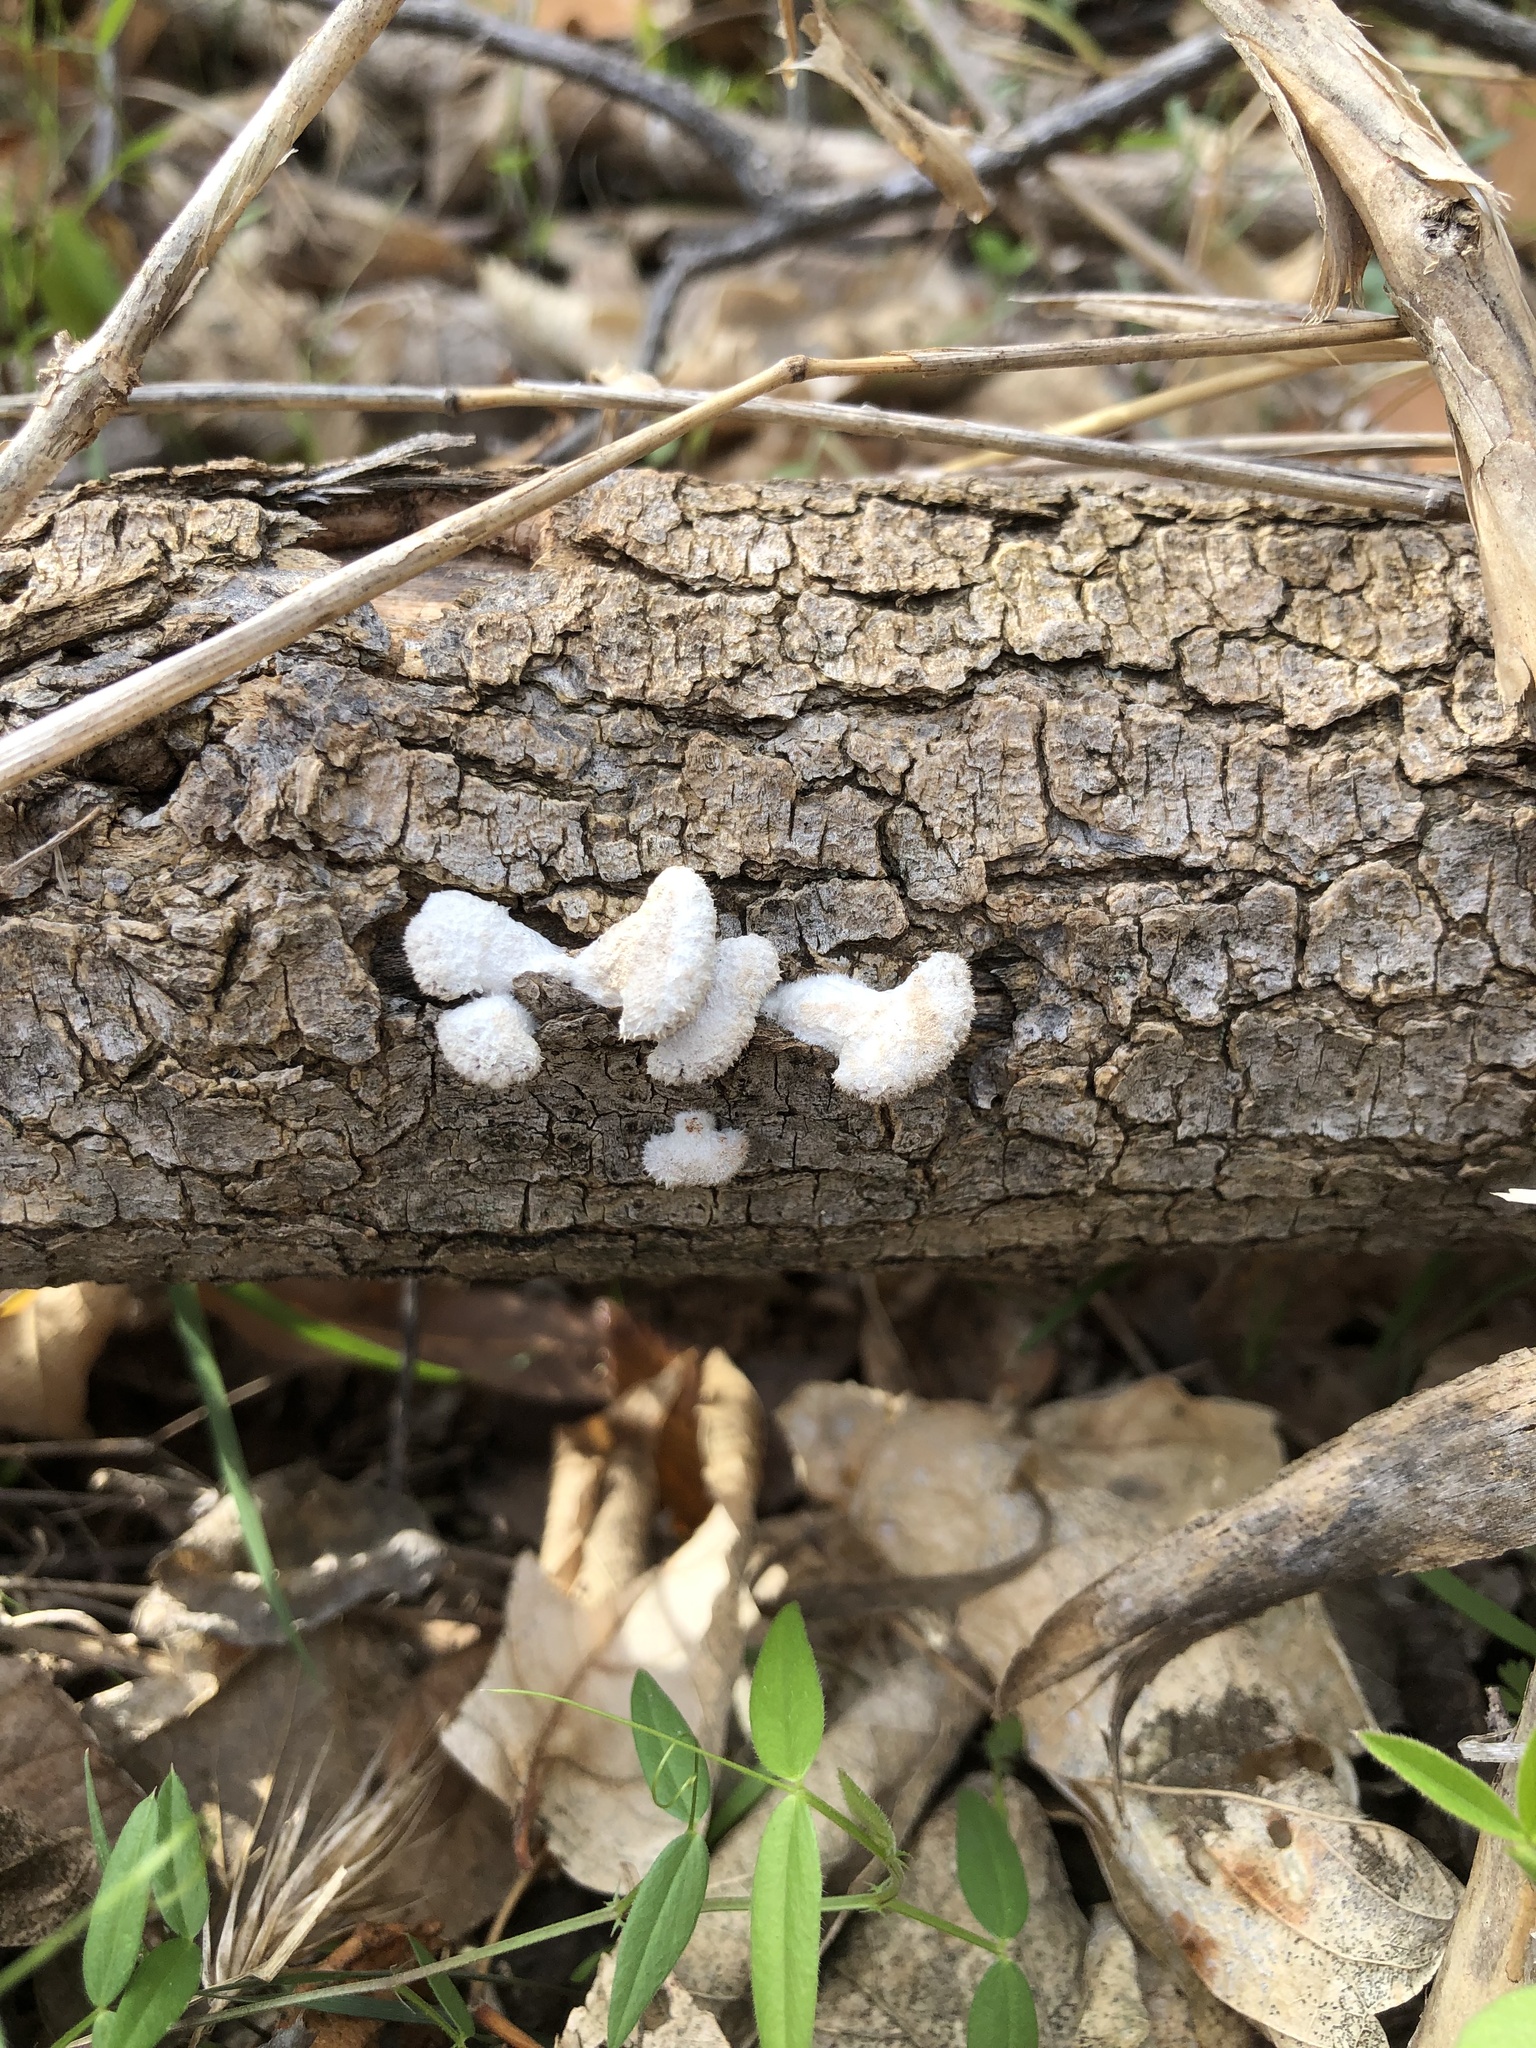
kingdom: Fungi
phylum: Basidiomycota
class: Agaricomycetes
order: Agaricales
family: Schizophyllaceae
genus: Schizophyllum
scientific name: Schizophyllum commune
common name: Common porecrust
